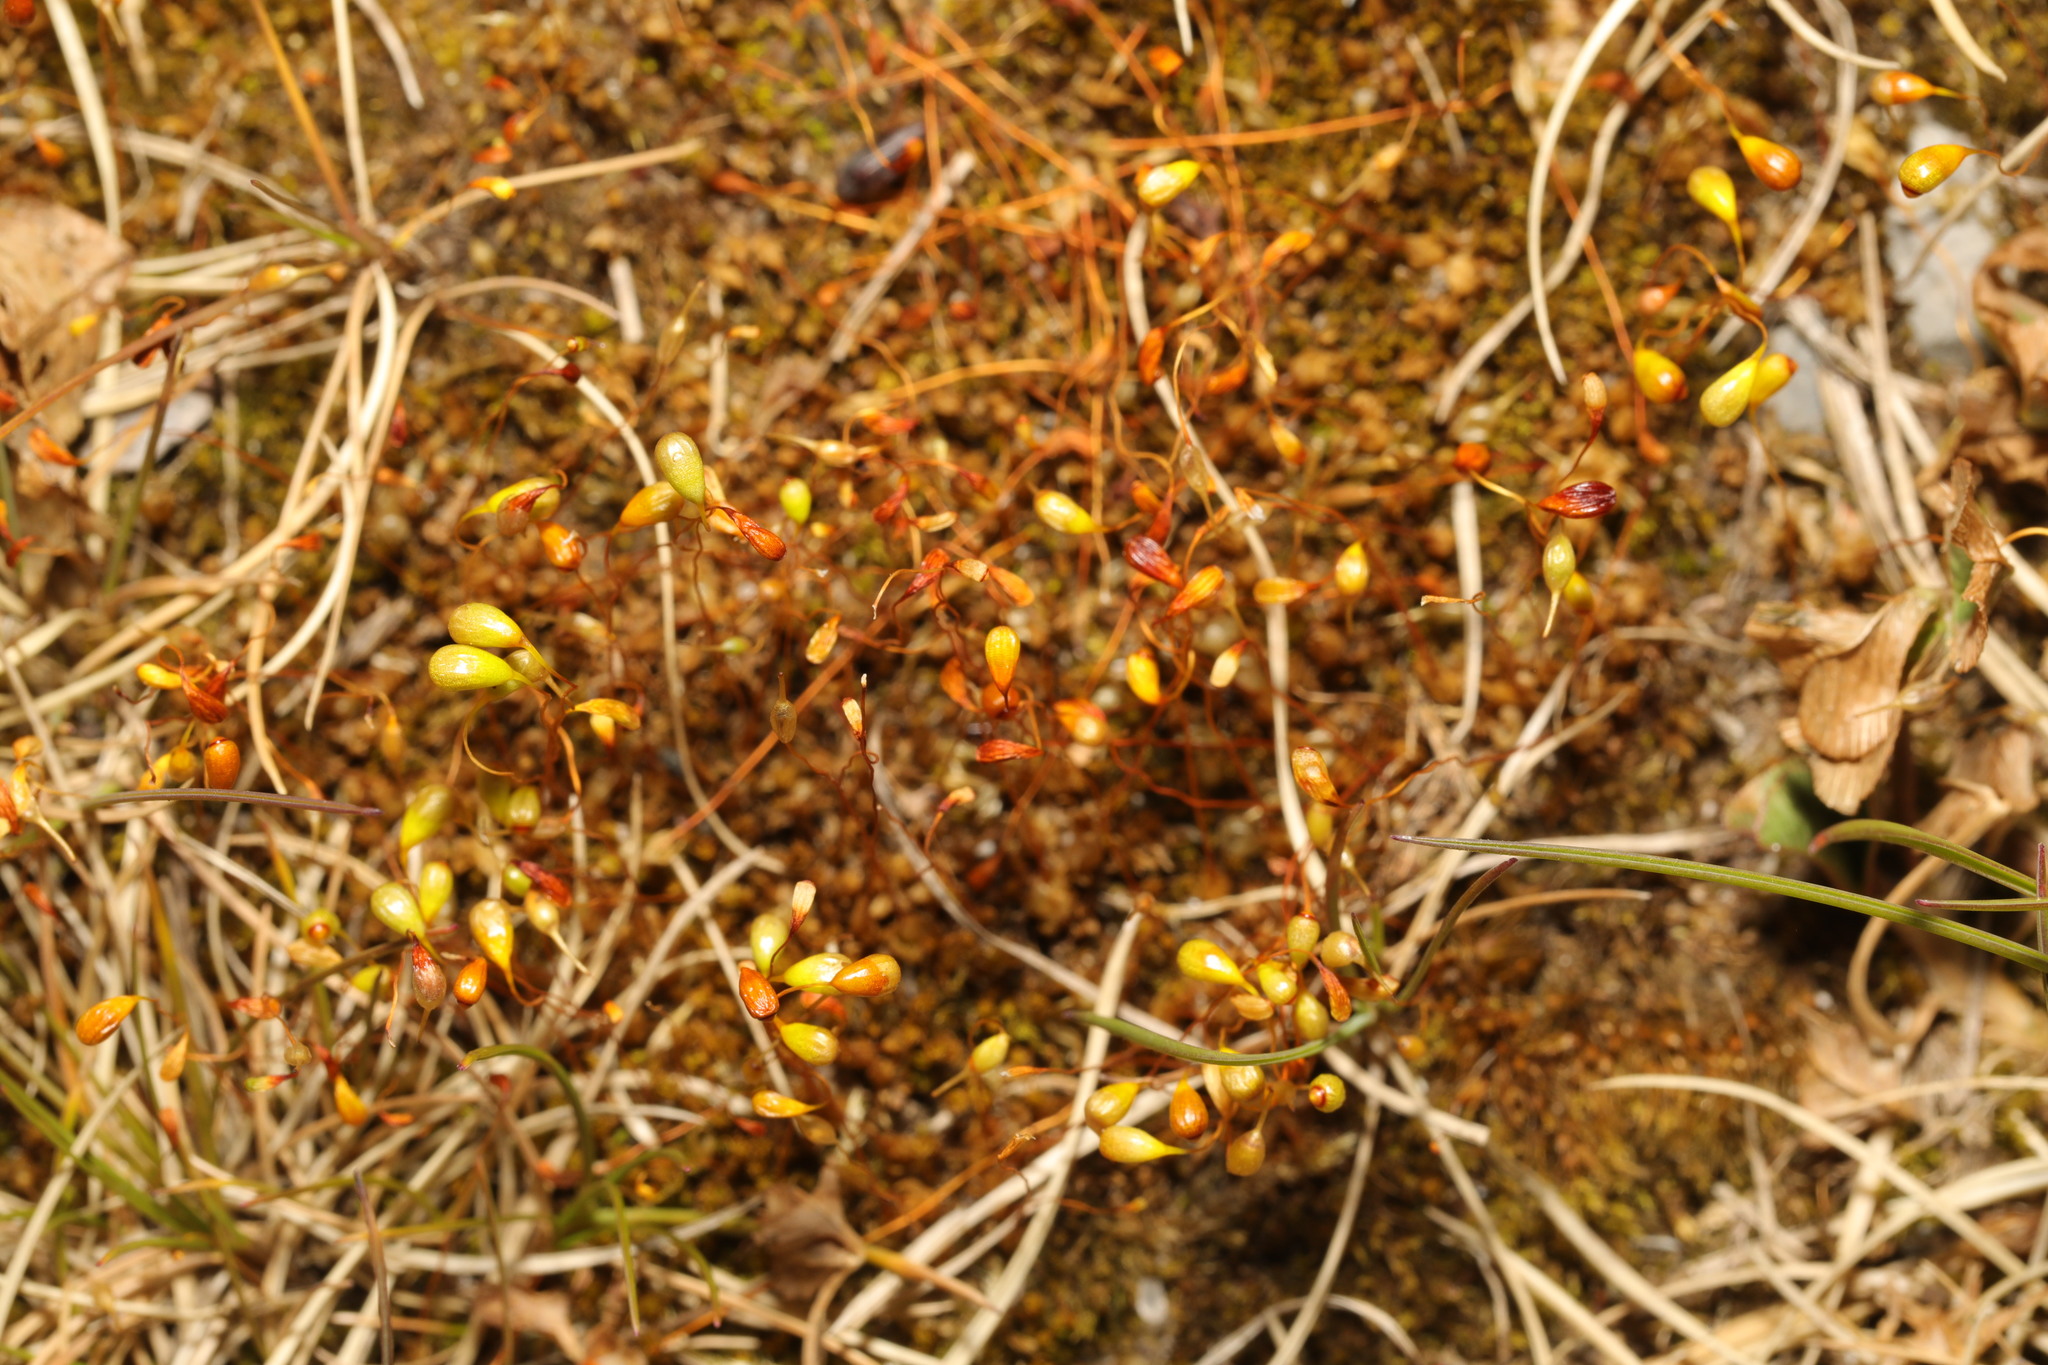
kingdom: Plantae
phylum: Bryophyta
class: Bryopsida
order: Funariales
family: Funariaceae
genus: Funaria
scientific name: Funaria hygrometrica
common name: Common cord moss
